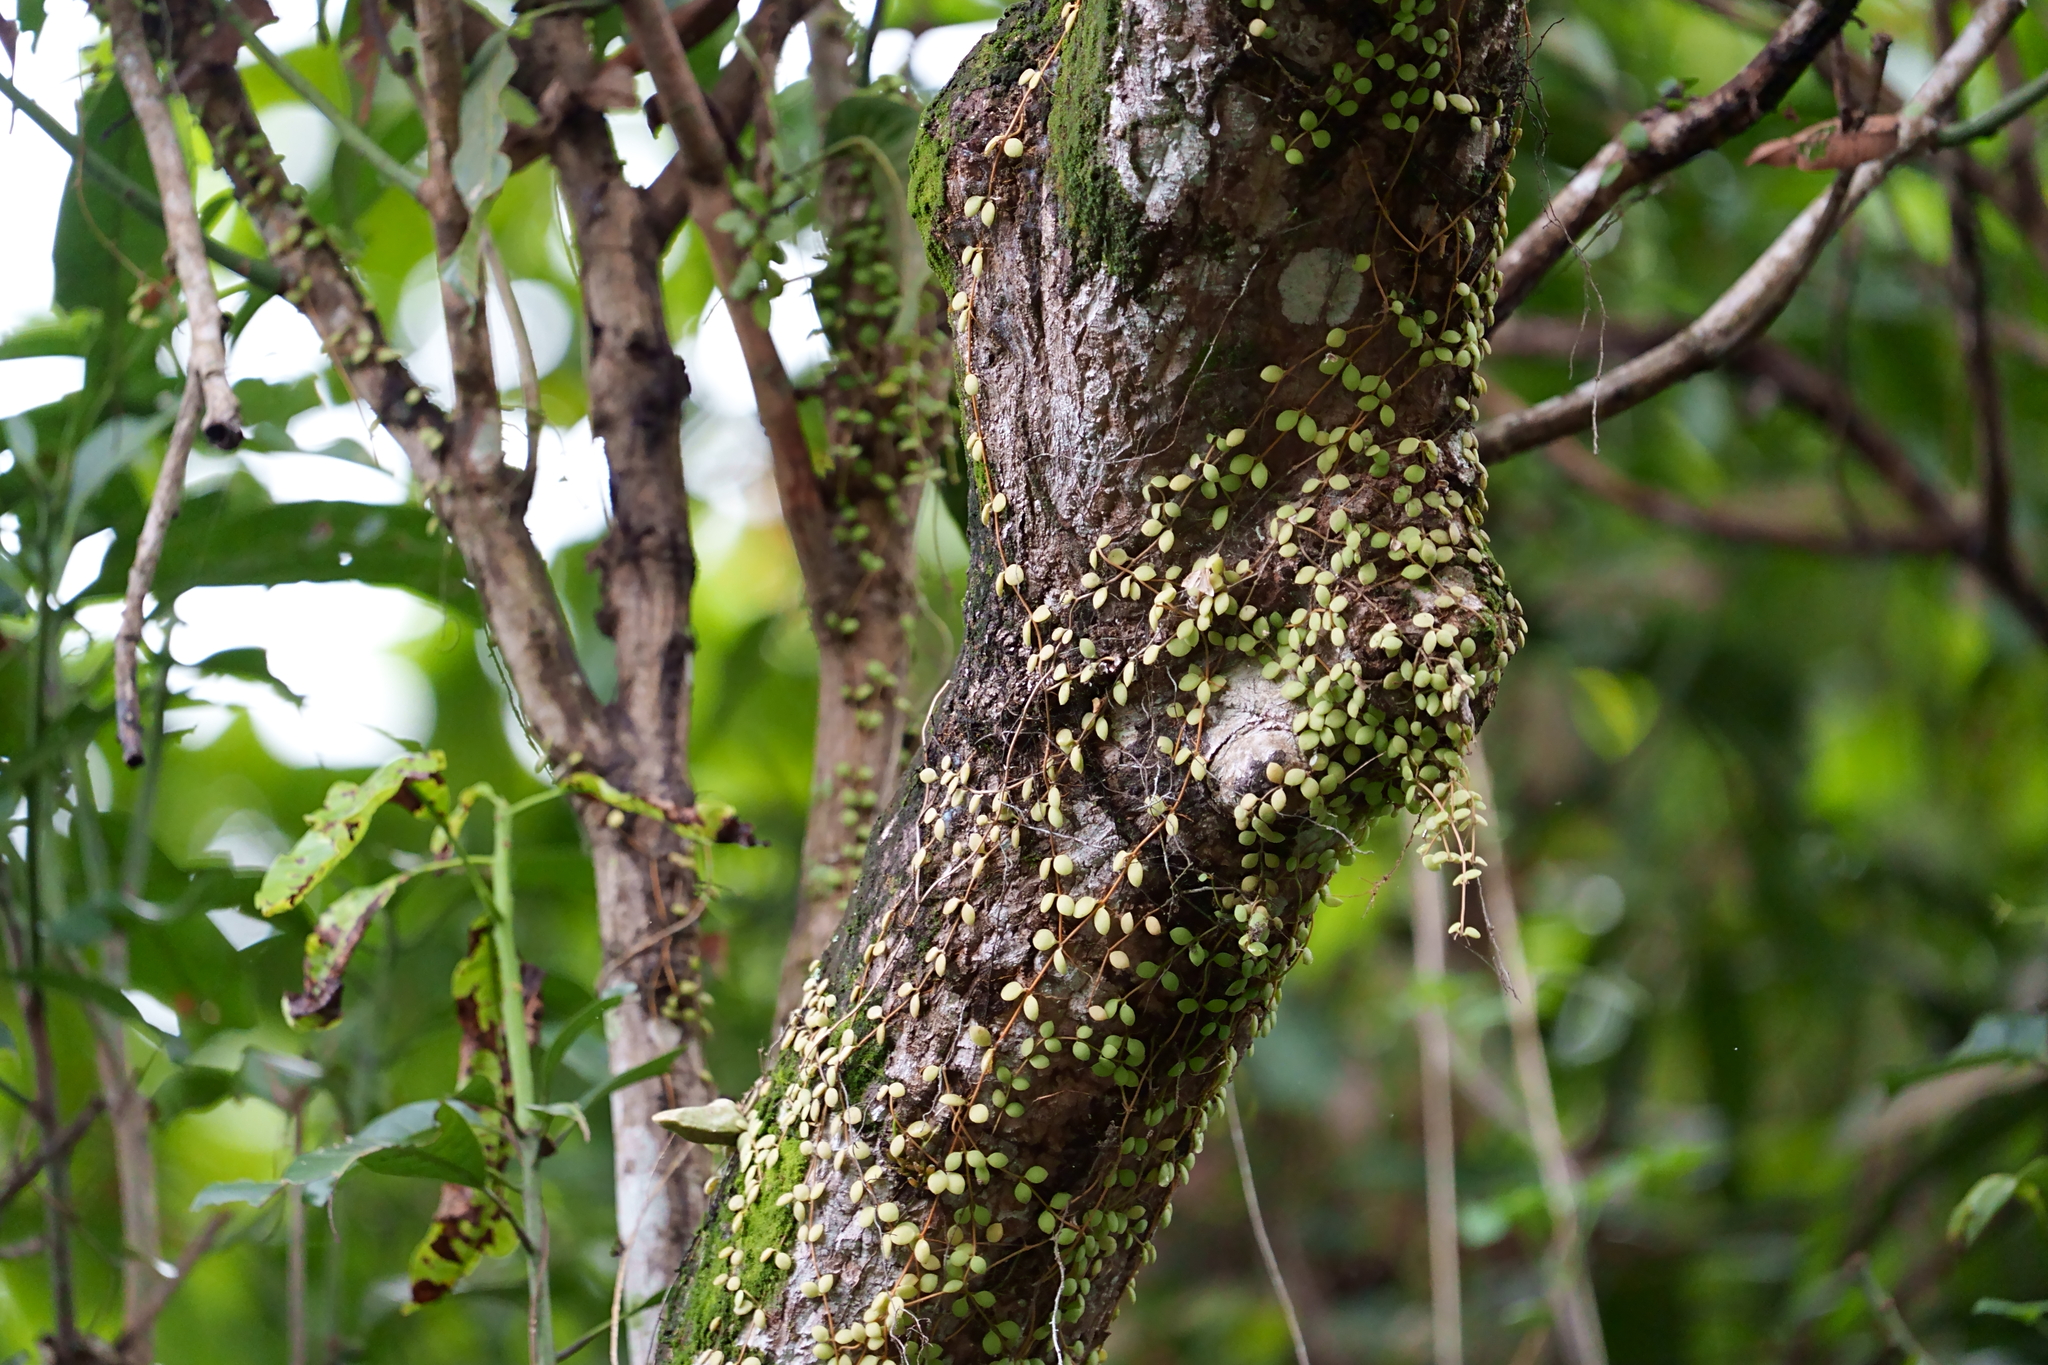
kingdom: Plantae
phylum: Tracheophyta
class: Magnoliopsida
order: Gentianales
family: Apocynaceae
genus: Dischidia
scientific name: Dischidia nummularia
